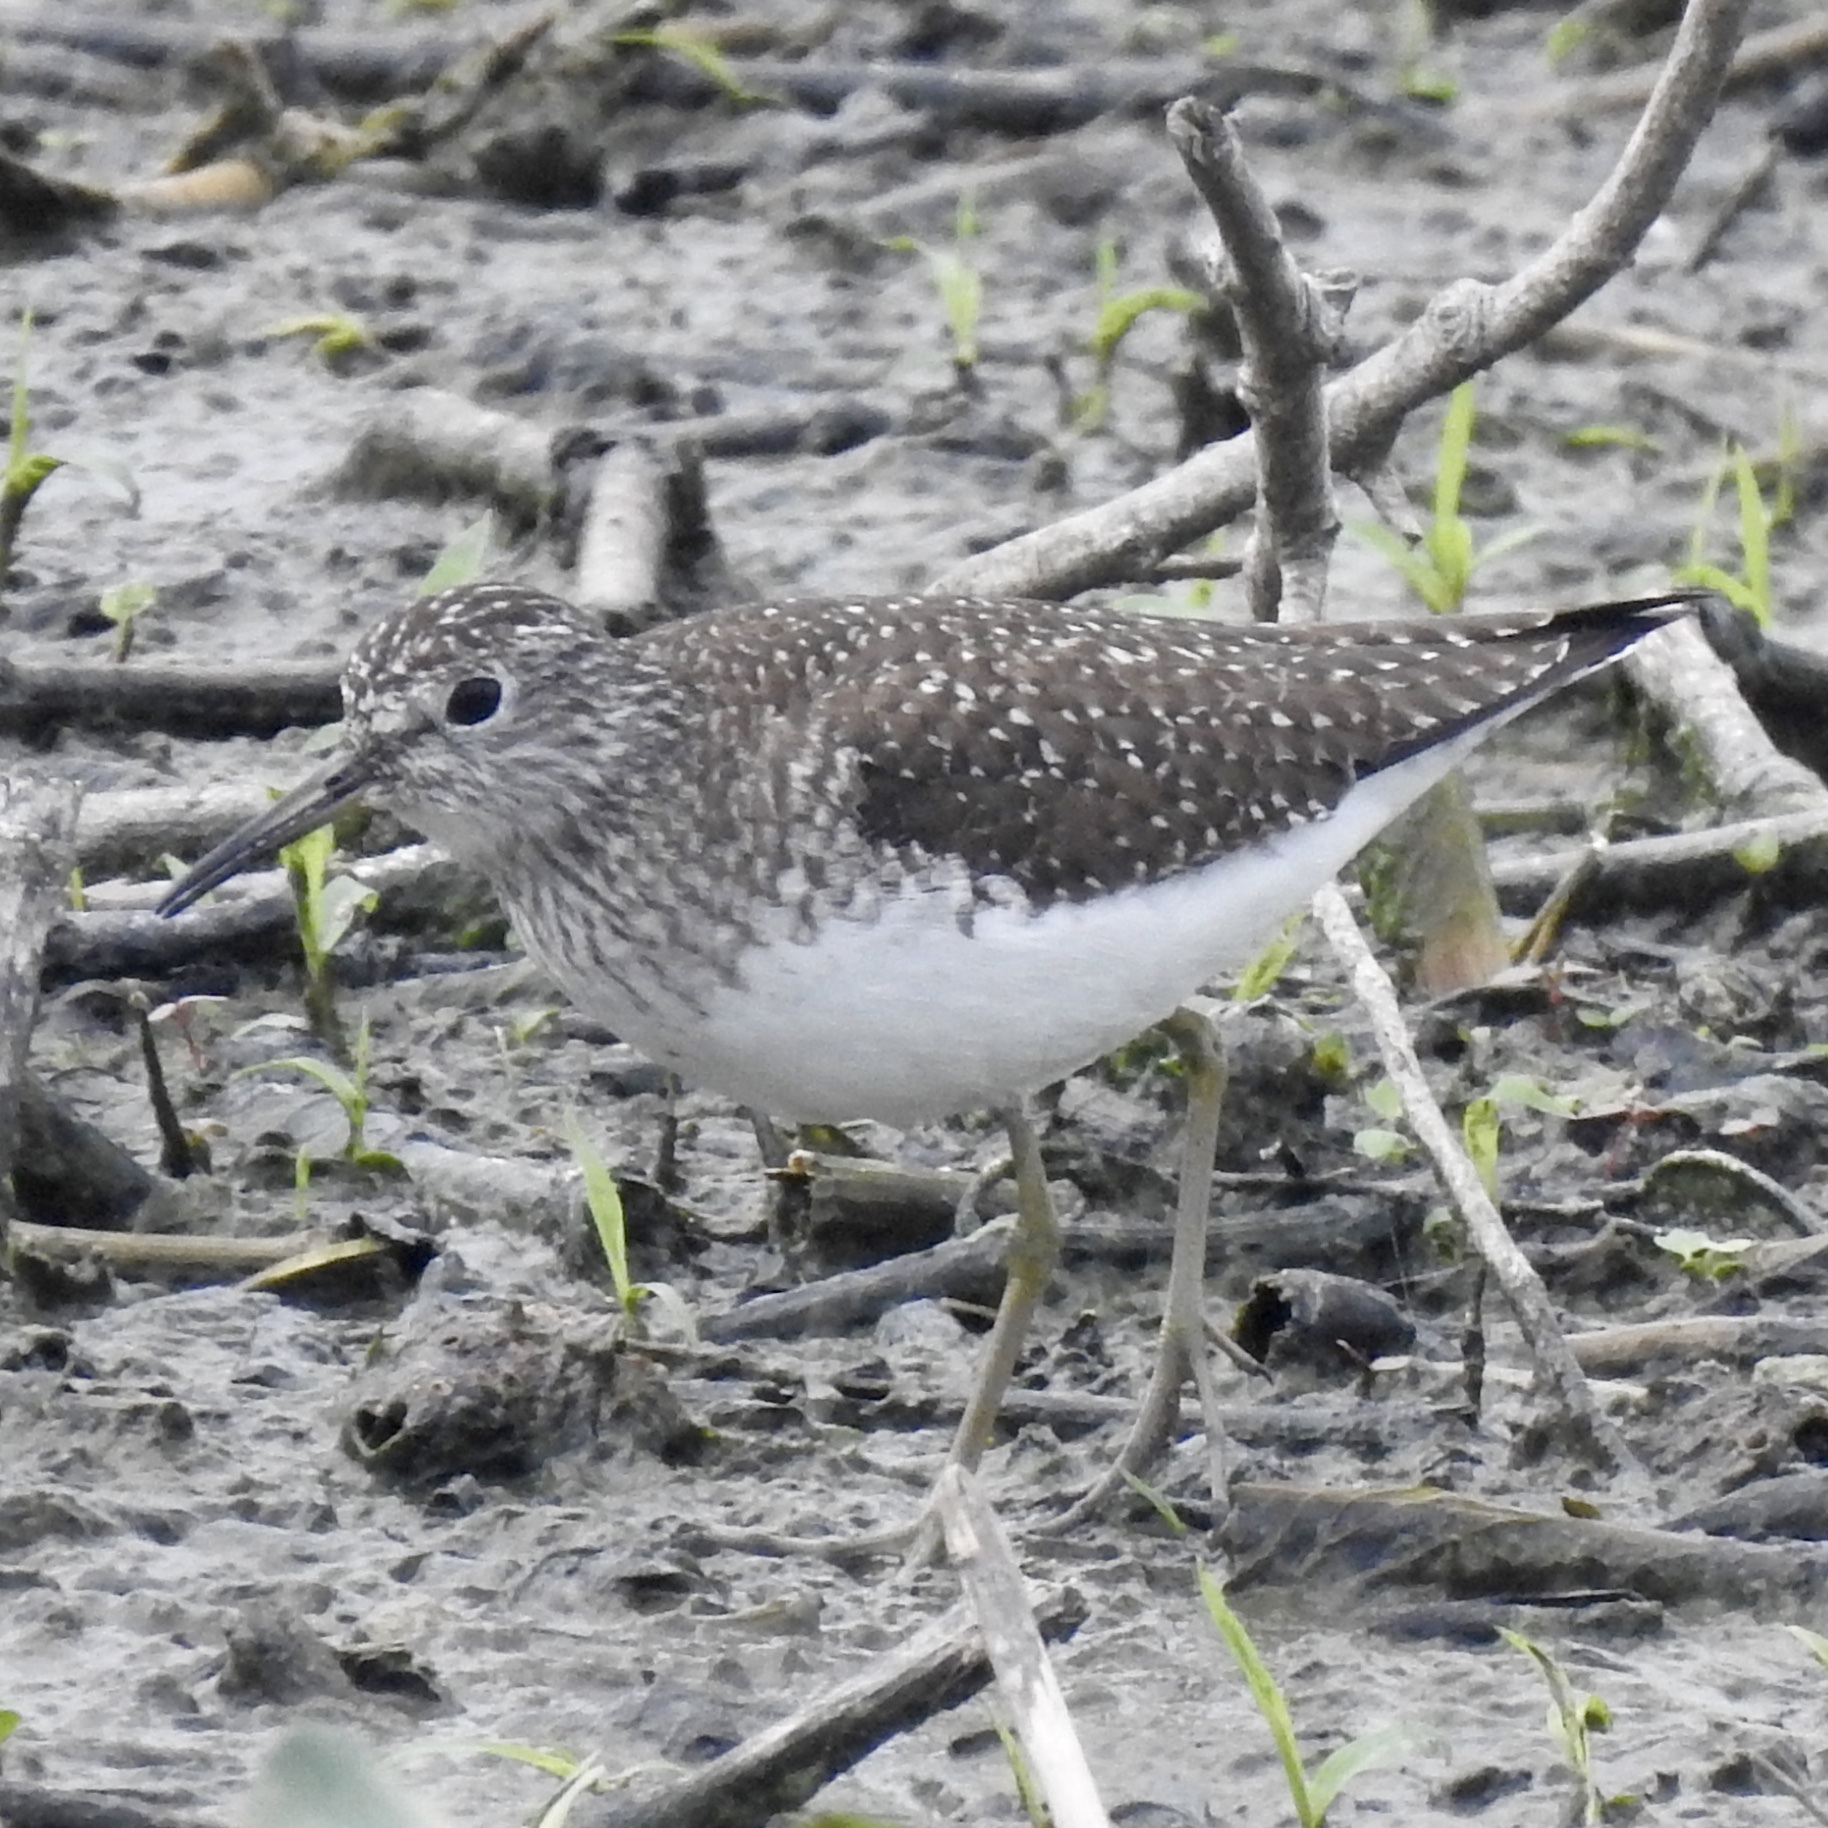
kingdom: Animalia
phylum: Chordata
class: Aves
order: Charadriiformes
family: Scolopacidae
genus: Tringa
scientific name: Tringa solitaria
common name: Solitary sandpiper
